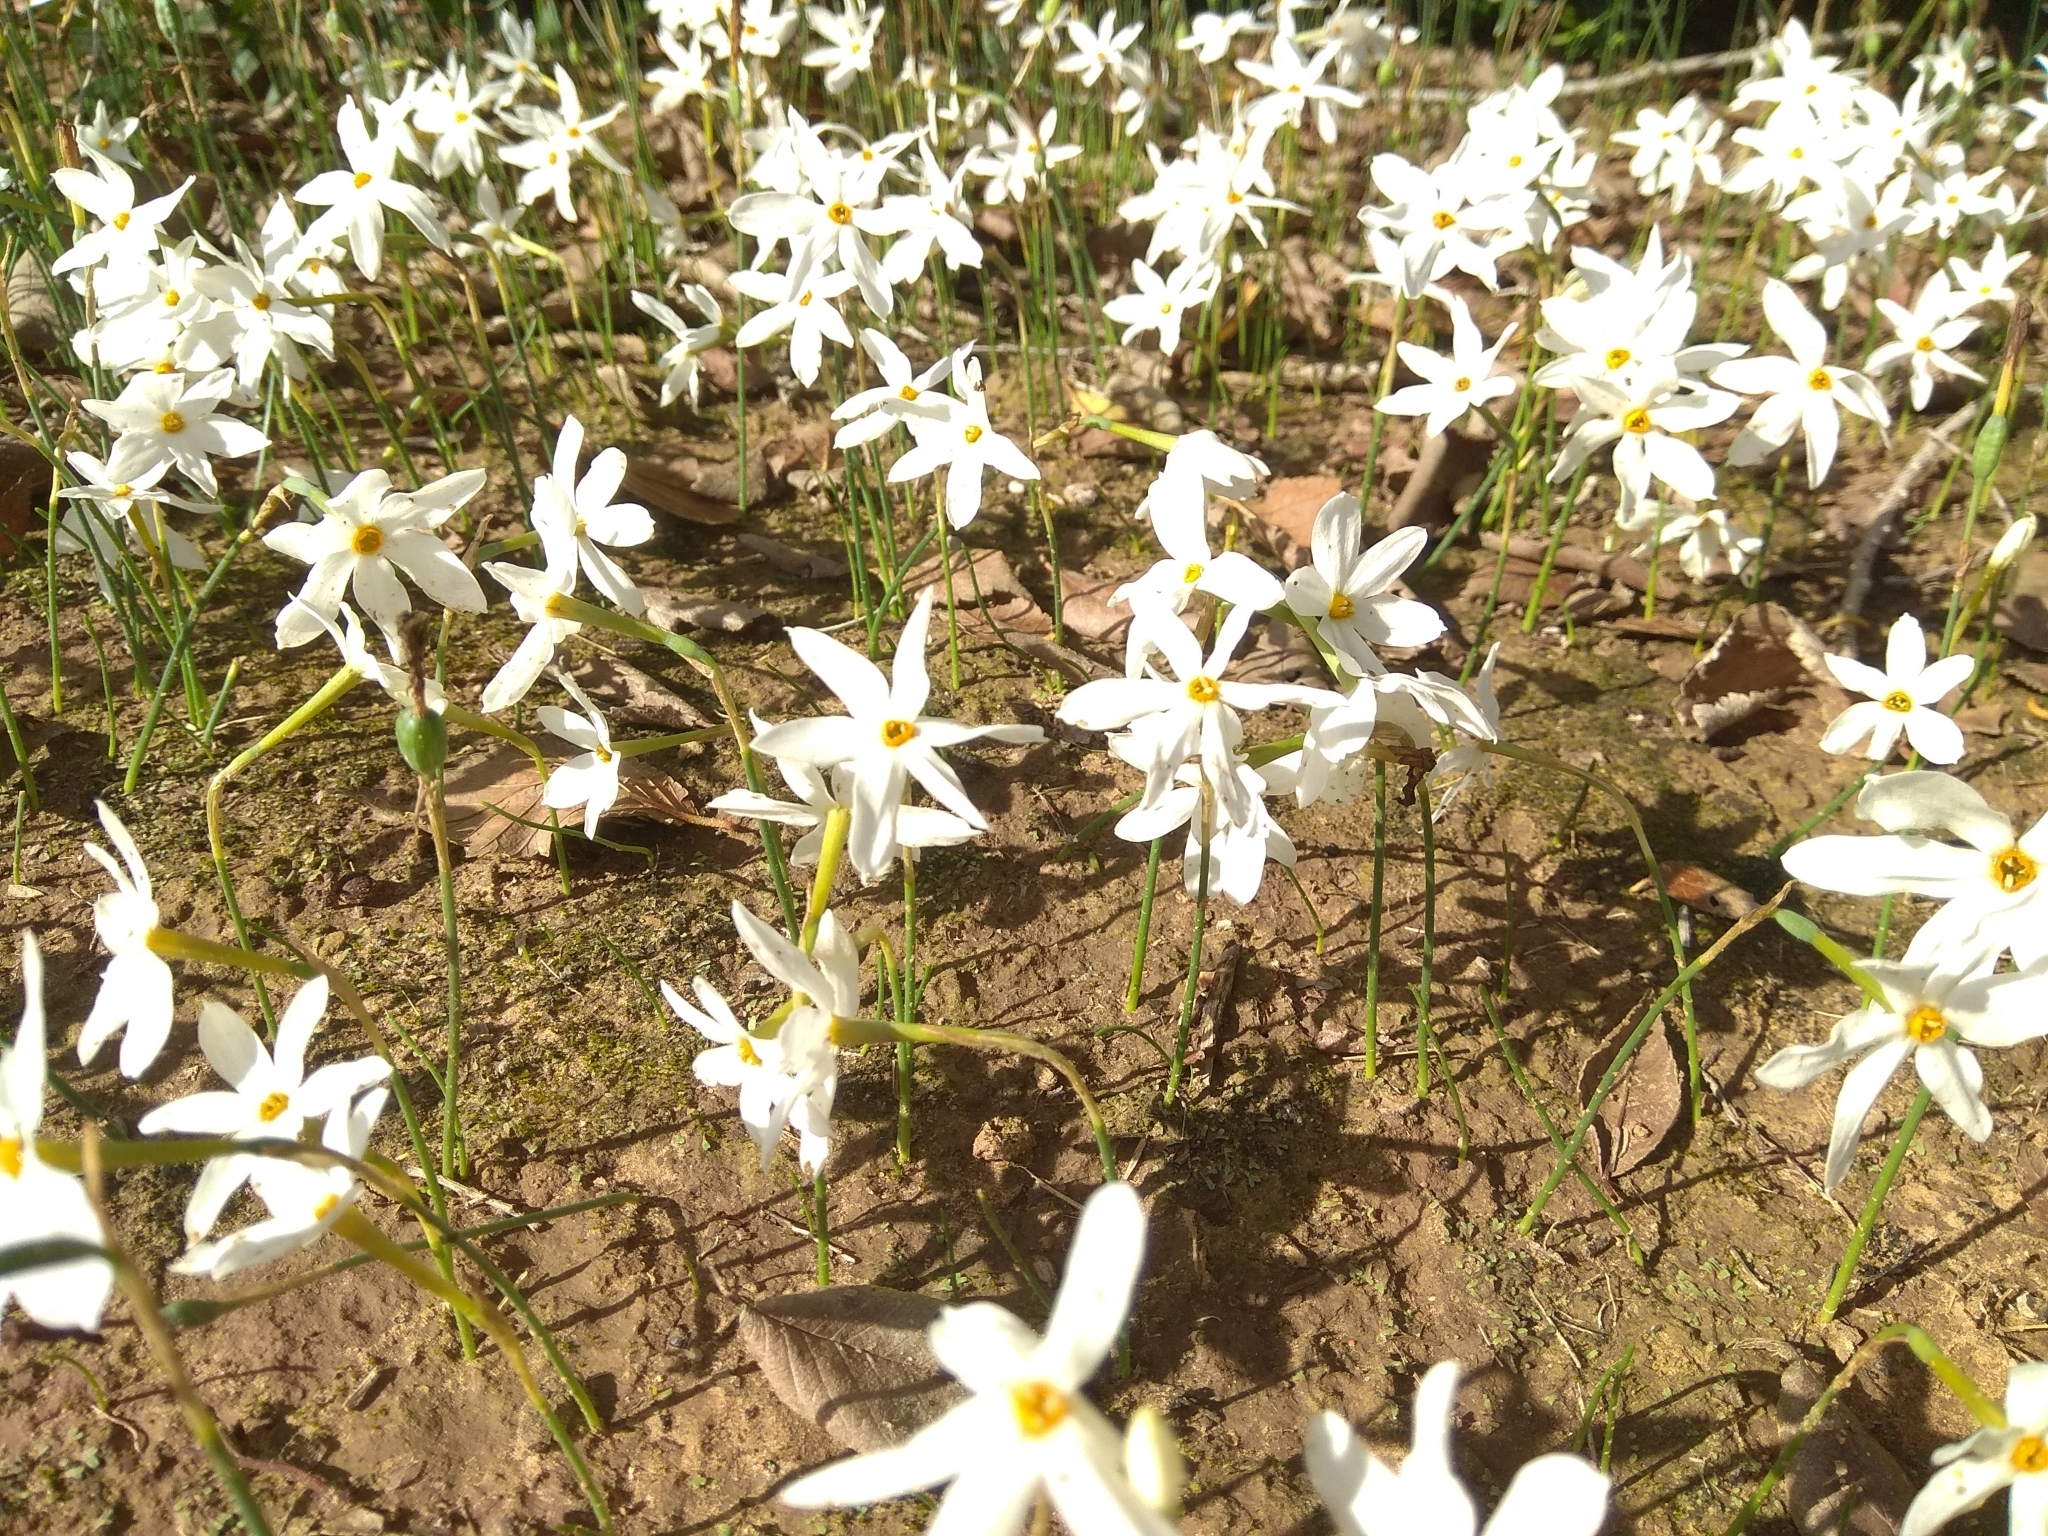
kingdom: Plantae
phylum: Tracheophyta
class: Liliopsida
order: Asparagales
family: Amaryllidaceae
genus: Narcissus
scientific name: Narcissus deficiens
